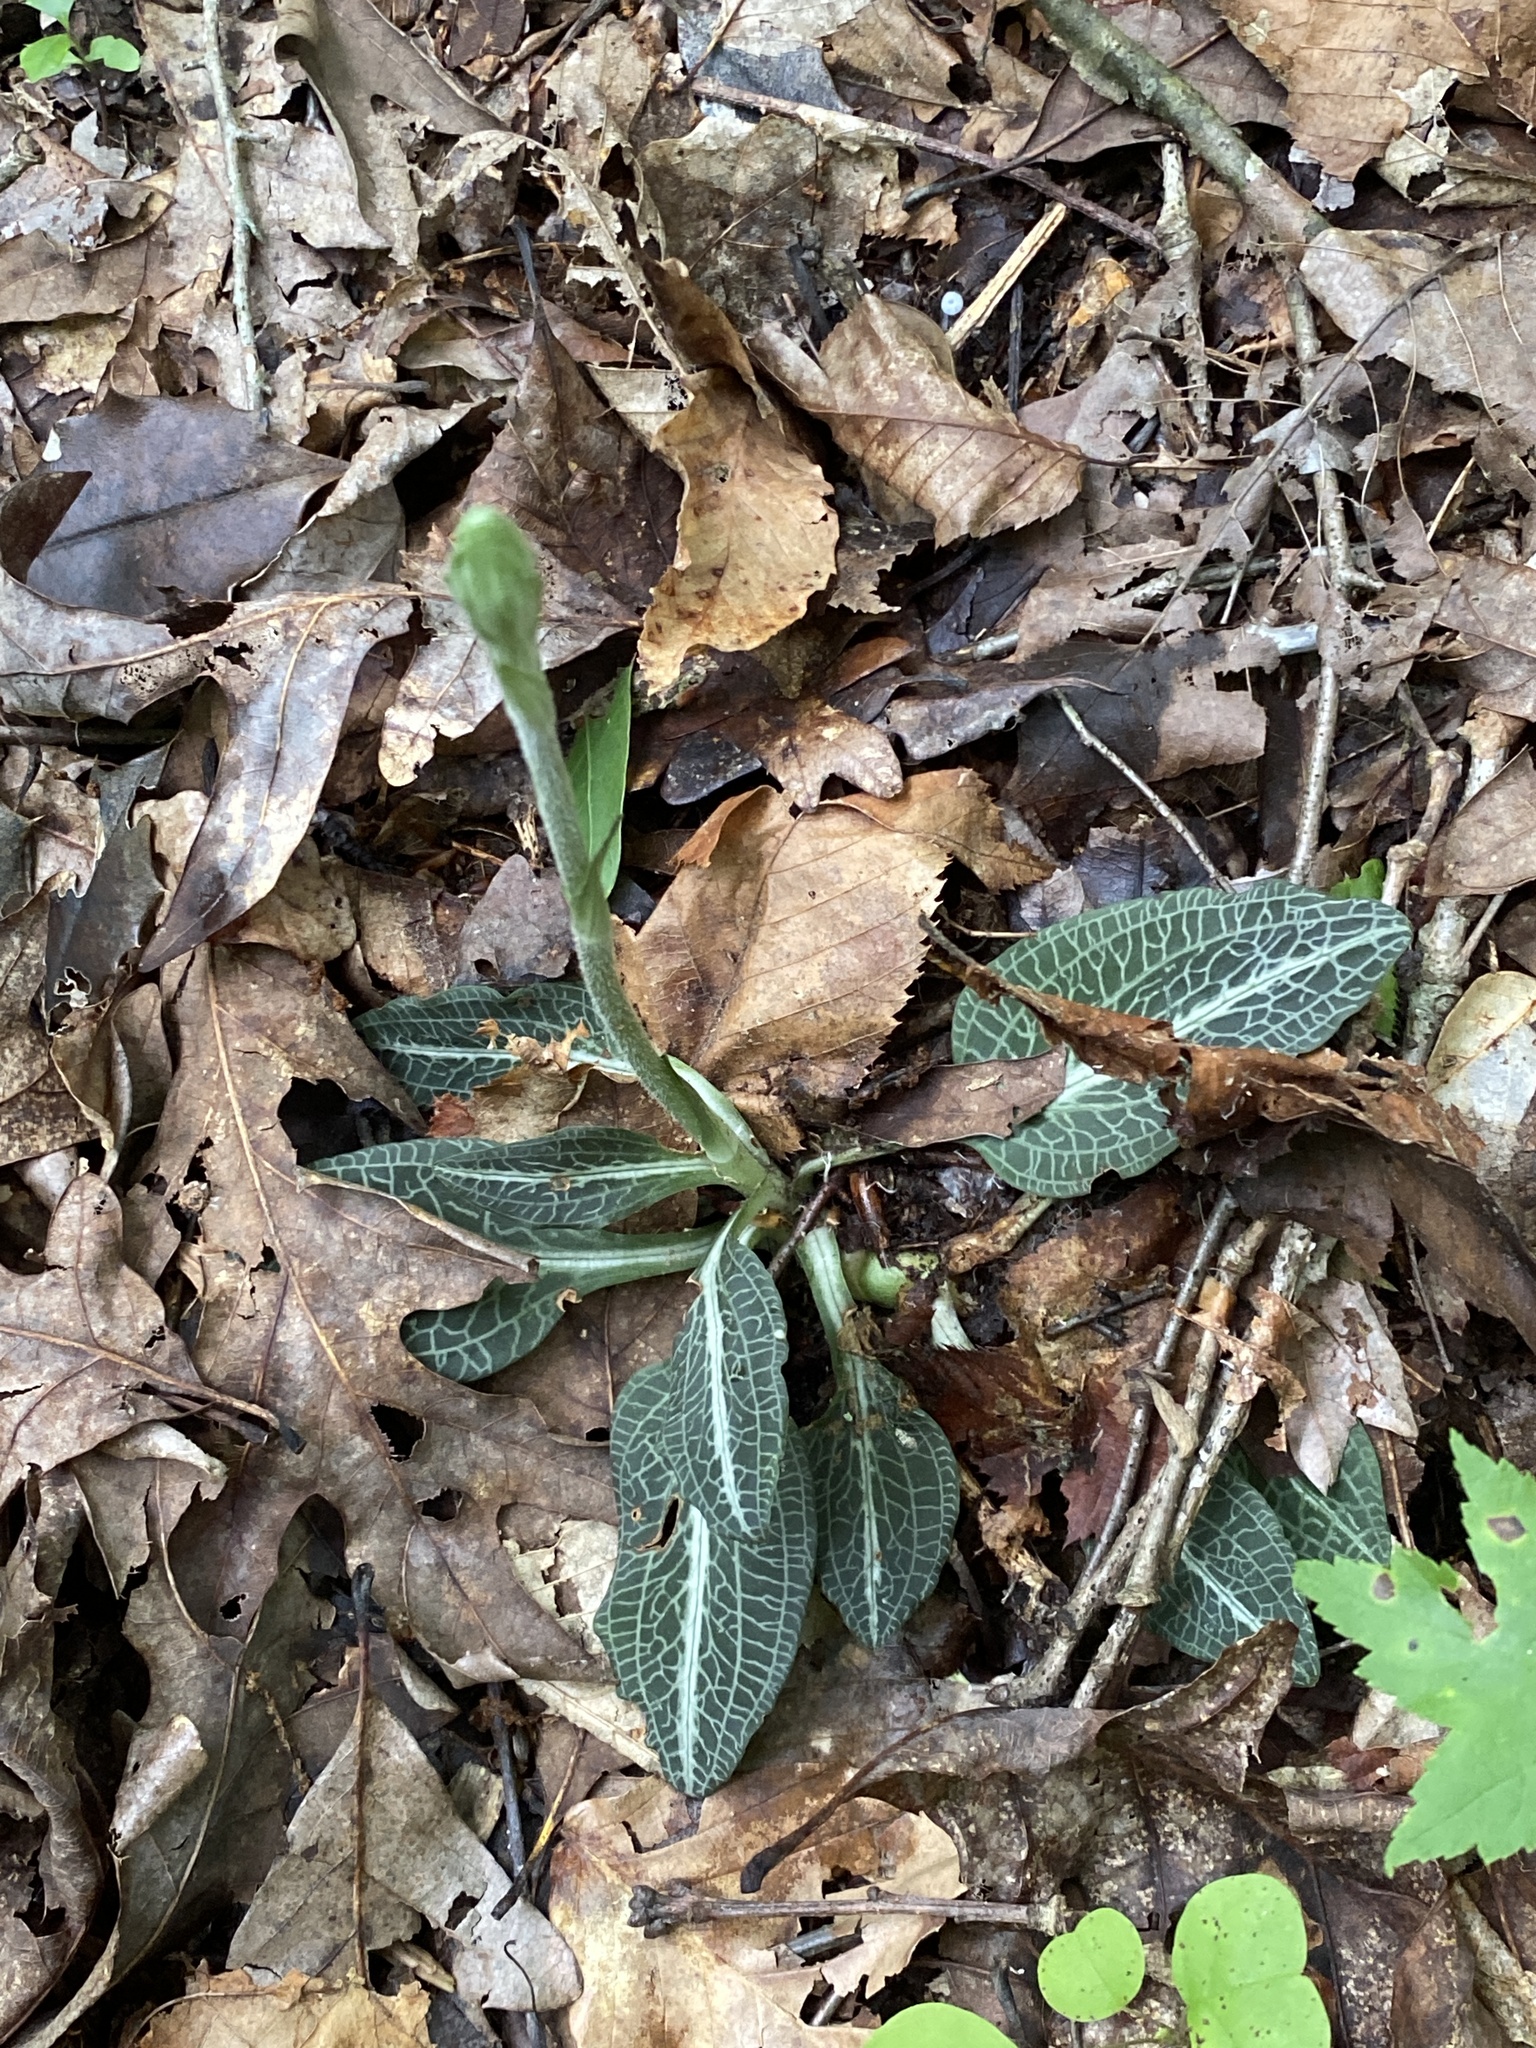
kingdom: Plantae
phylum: Tracheophyta
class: Liliopsida
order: Asparagales
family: Orchidaceae
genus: Goodyera
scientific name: Goodyera pubescens
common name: Downy rattlesnake-plantain
